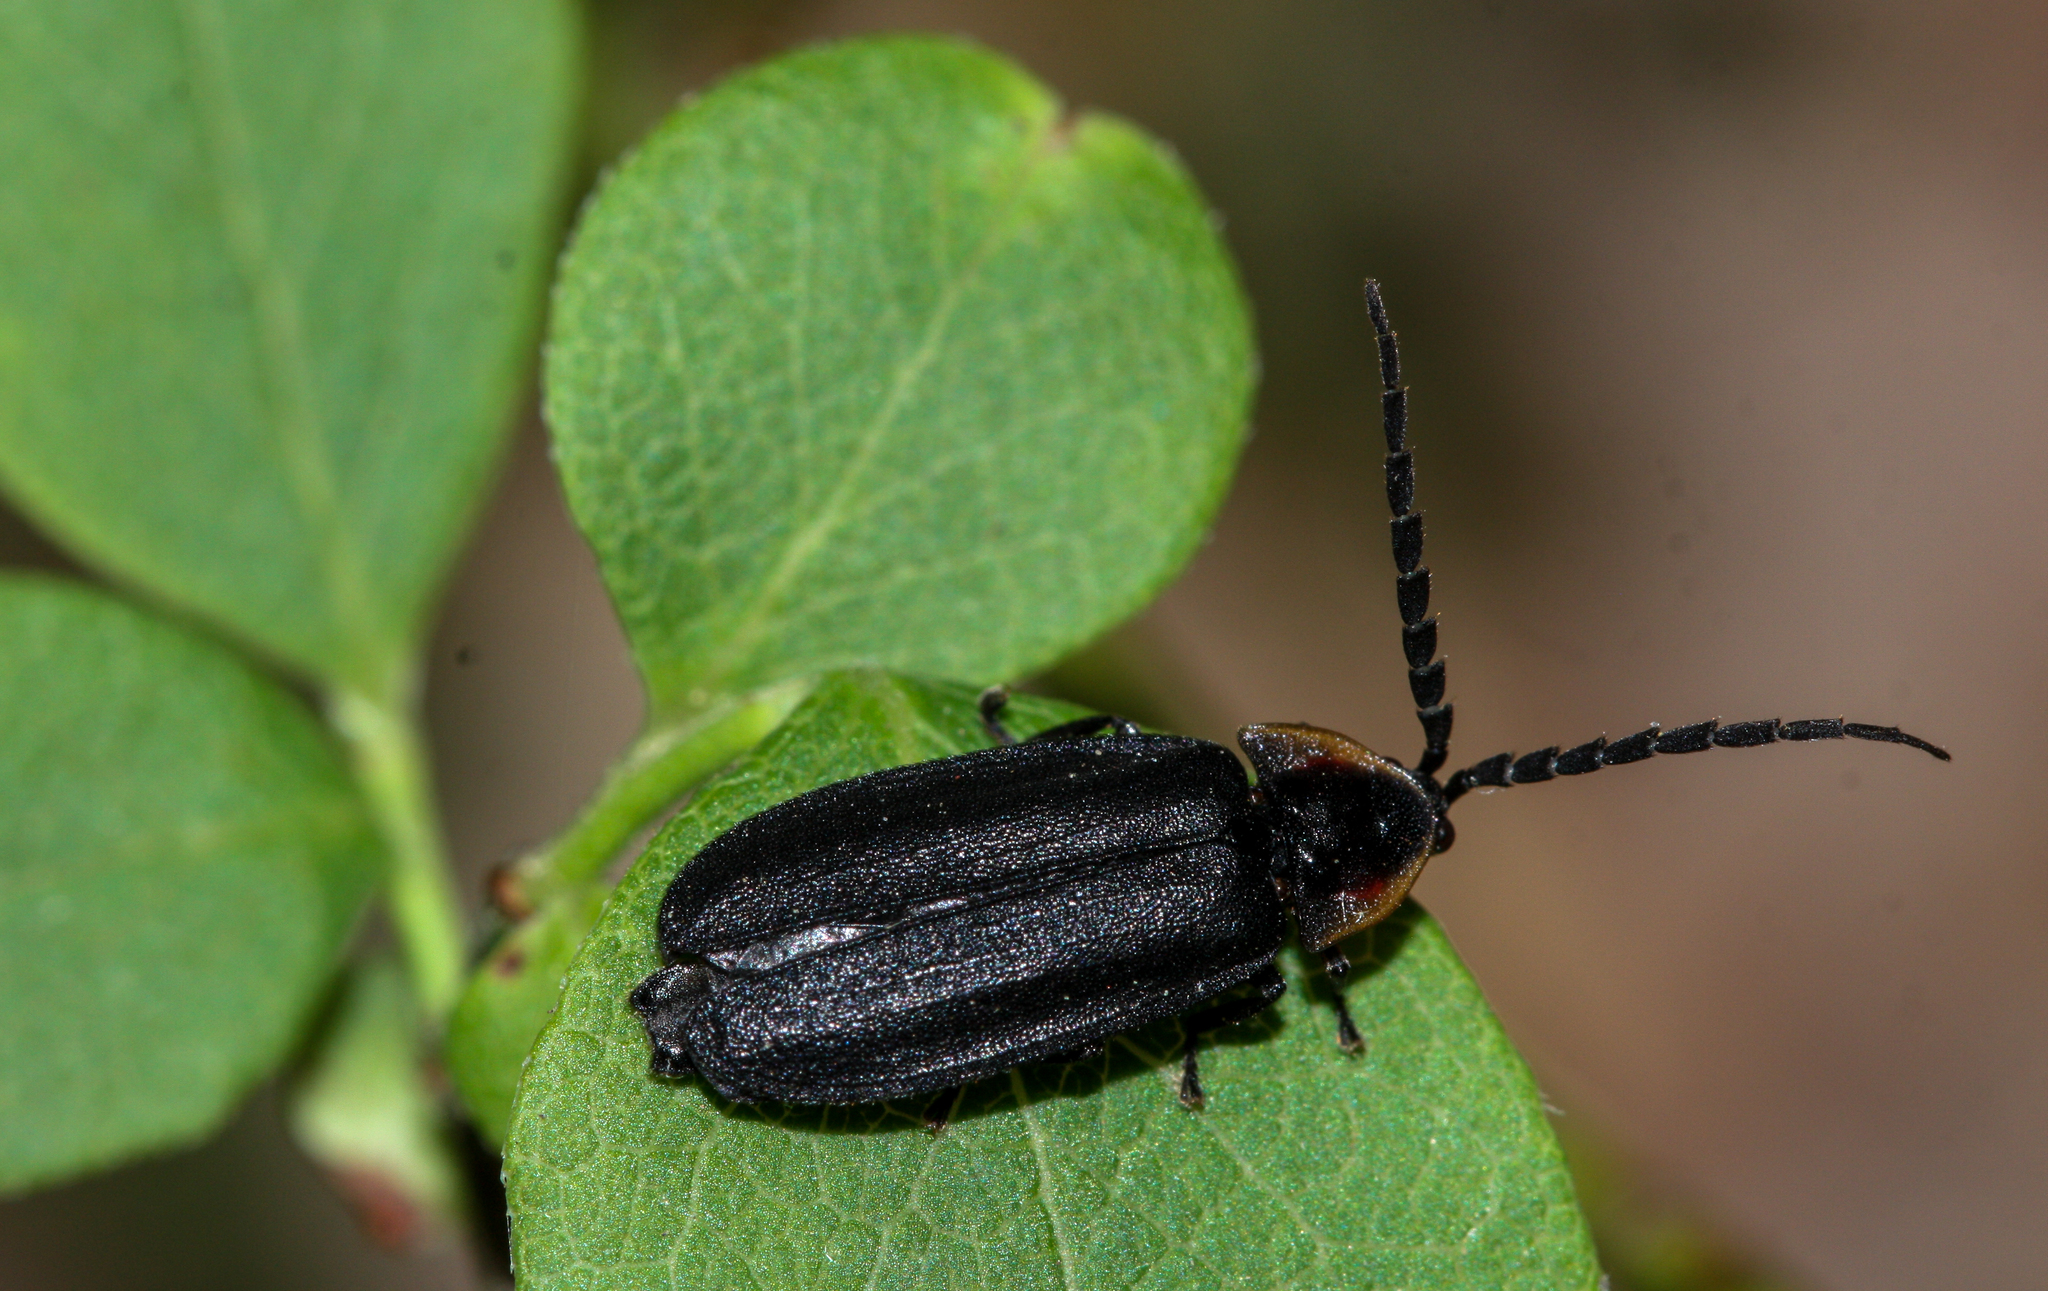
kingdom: Animalia
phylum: Arthropoda
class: Insecta
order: Coleoptera
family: Lampyridae
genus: Lucidota
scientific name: Lucidota atra
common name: Black firefly
